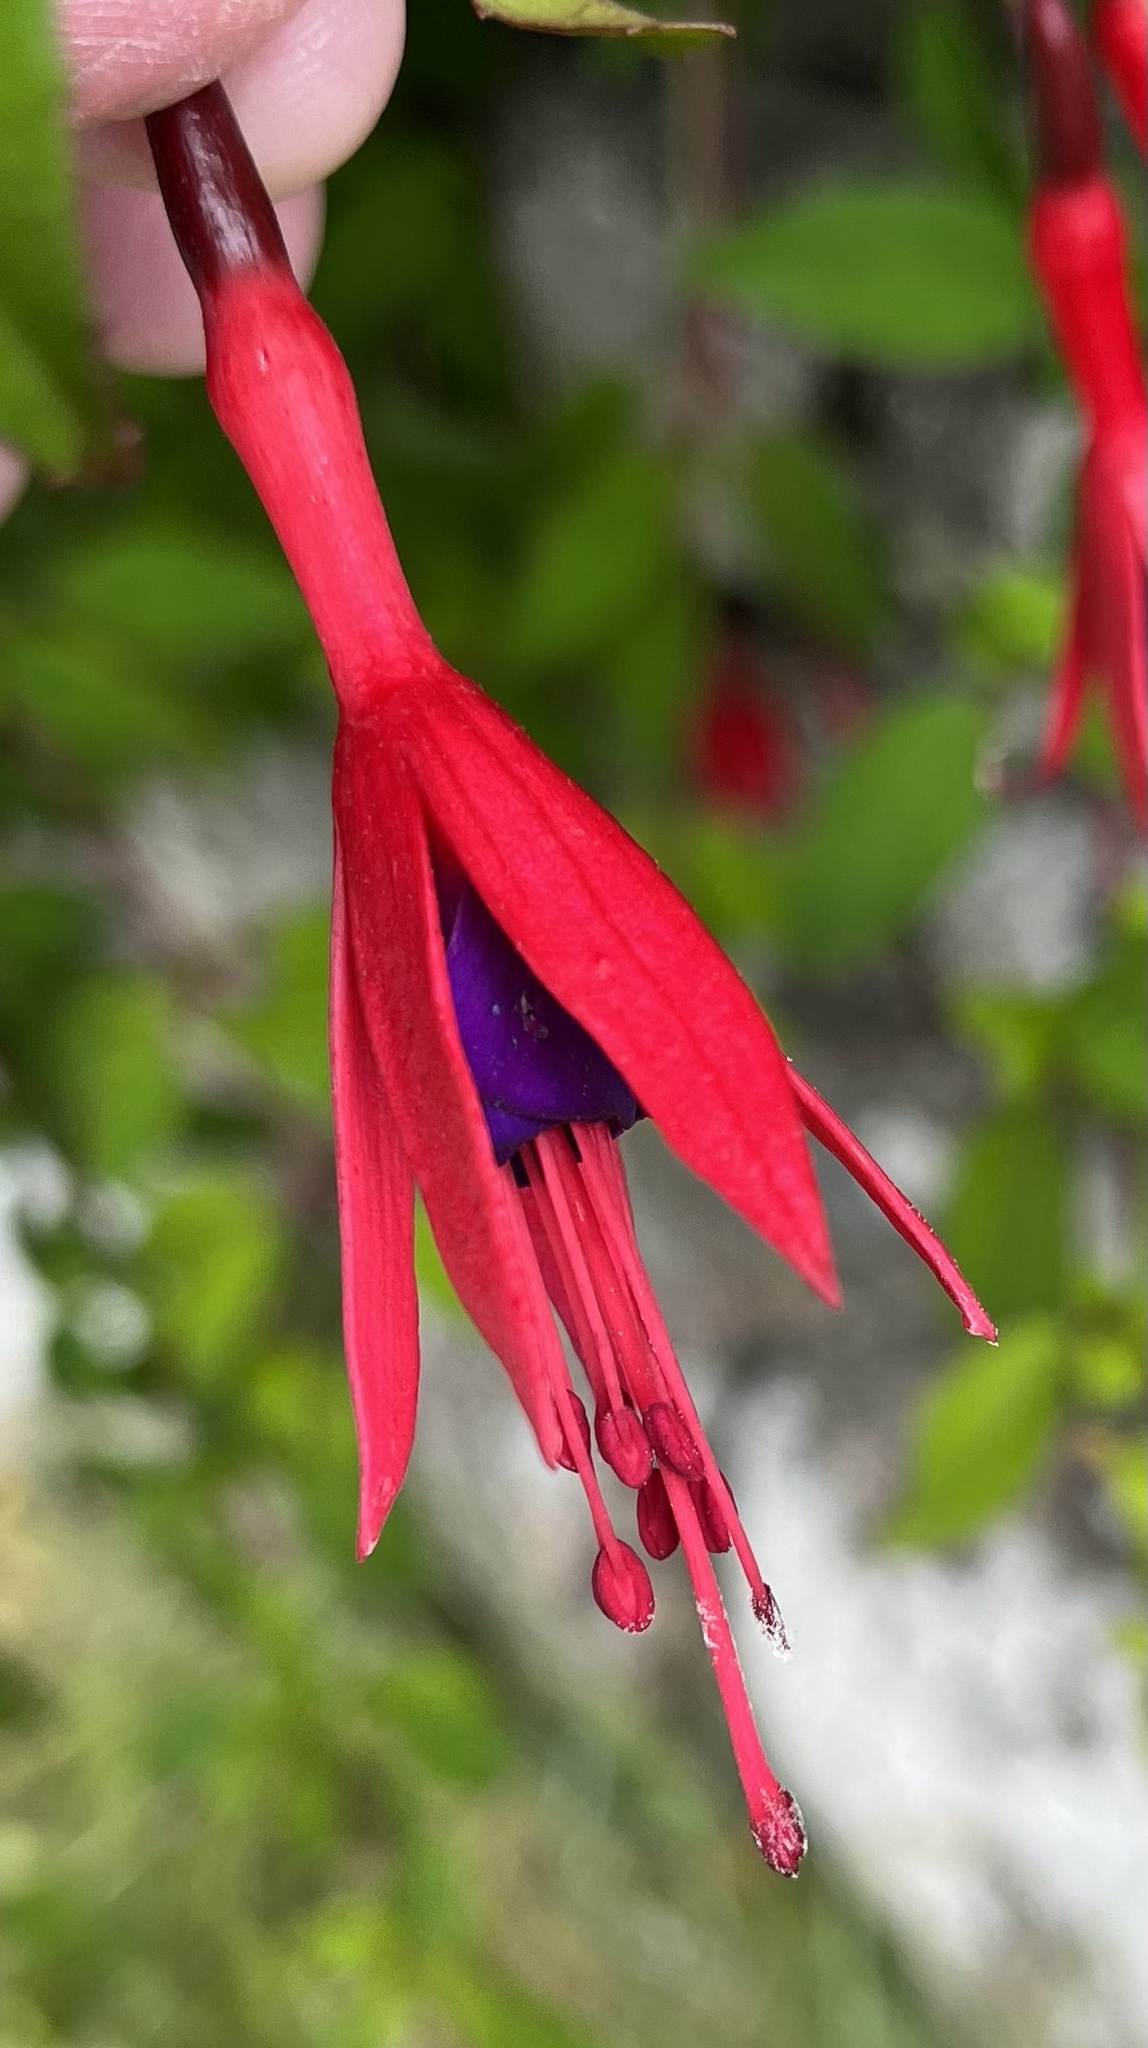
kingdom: Plantae
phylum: Tracheophyta
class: Magnoliopsida
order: Myrtales
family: Onagraceae
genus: Fuchsia
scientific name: Fuchsia magellanica
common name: Hardy fuchsia
